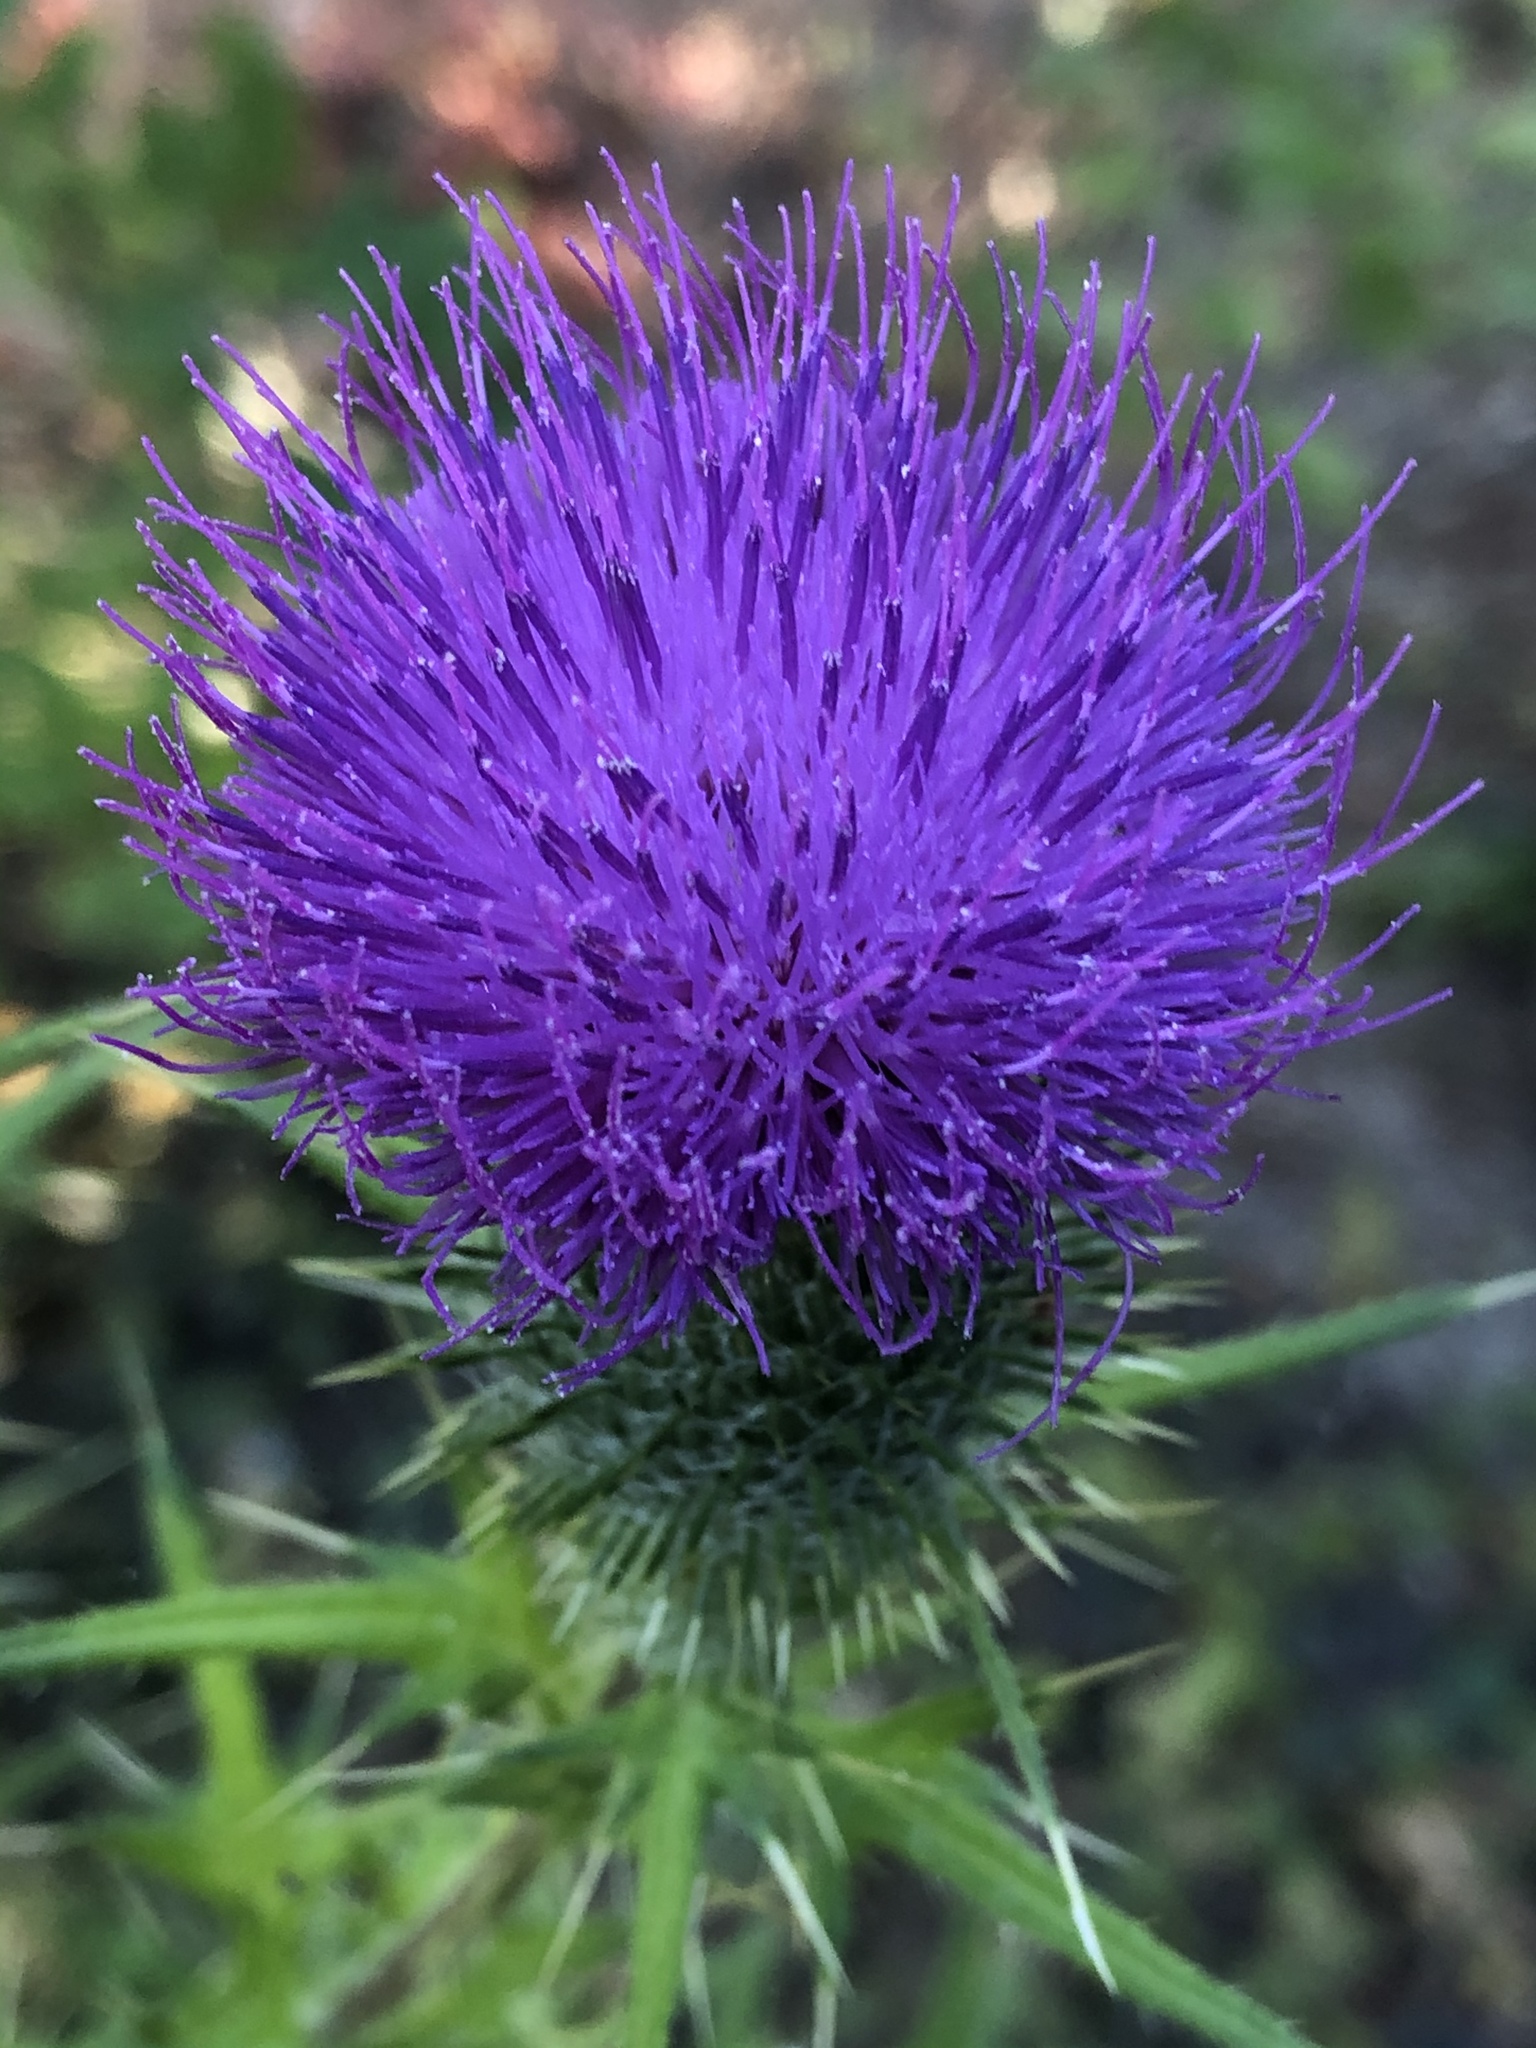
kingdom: Plantae
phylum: Tracheophyta
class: Magnoliopsida
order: Asterales
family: Asteraceae
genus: Cirsium
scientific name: Cirsium vulgare
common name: Bull thistle
